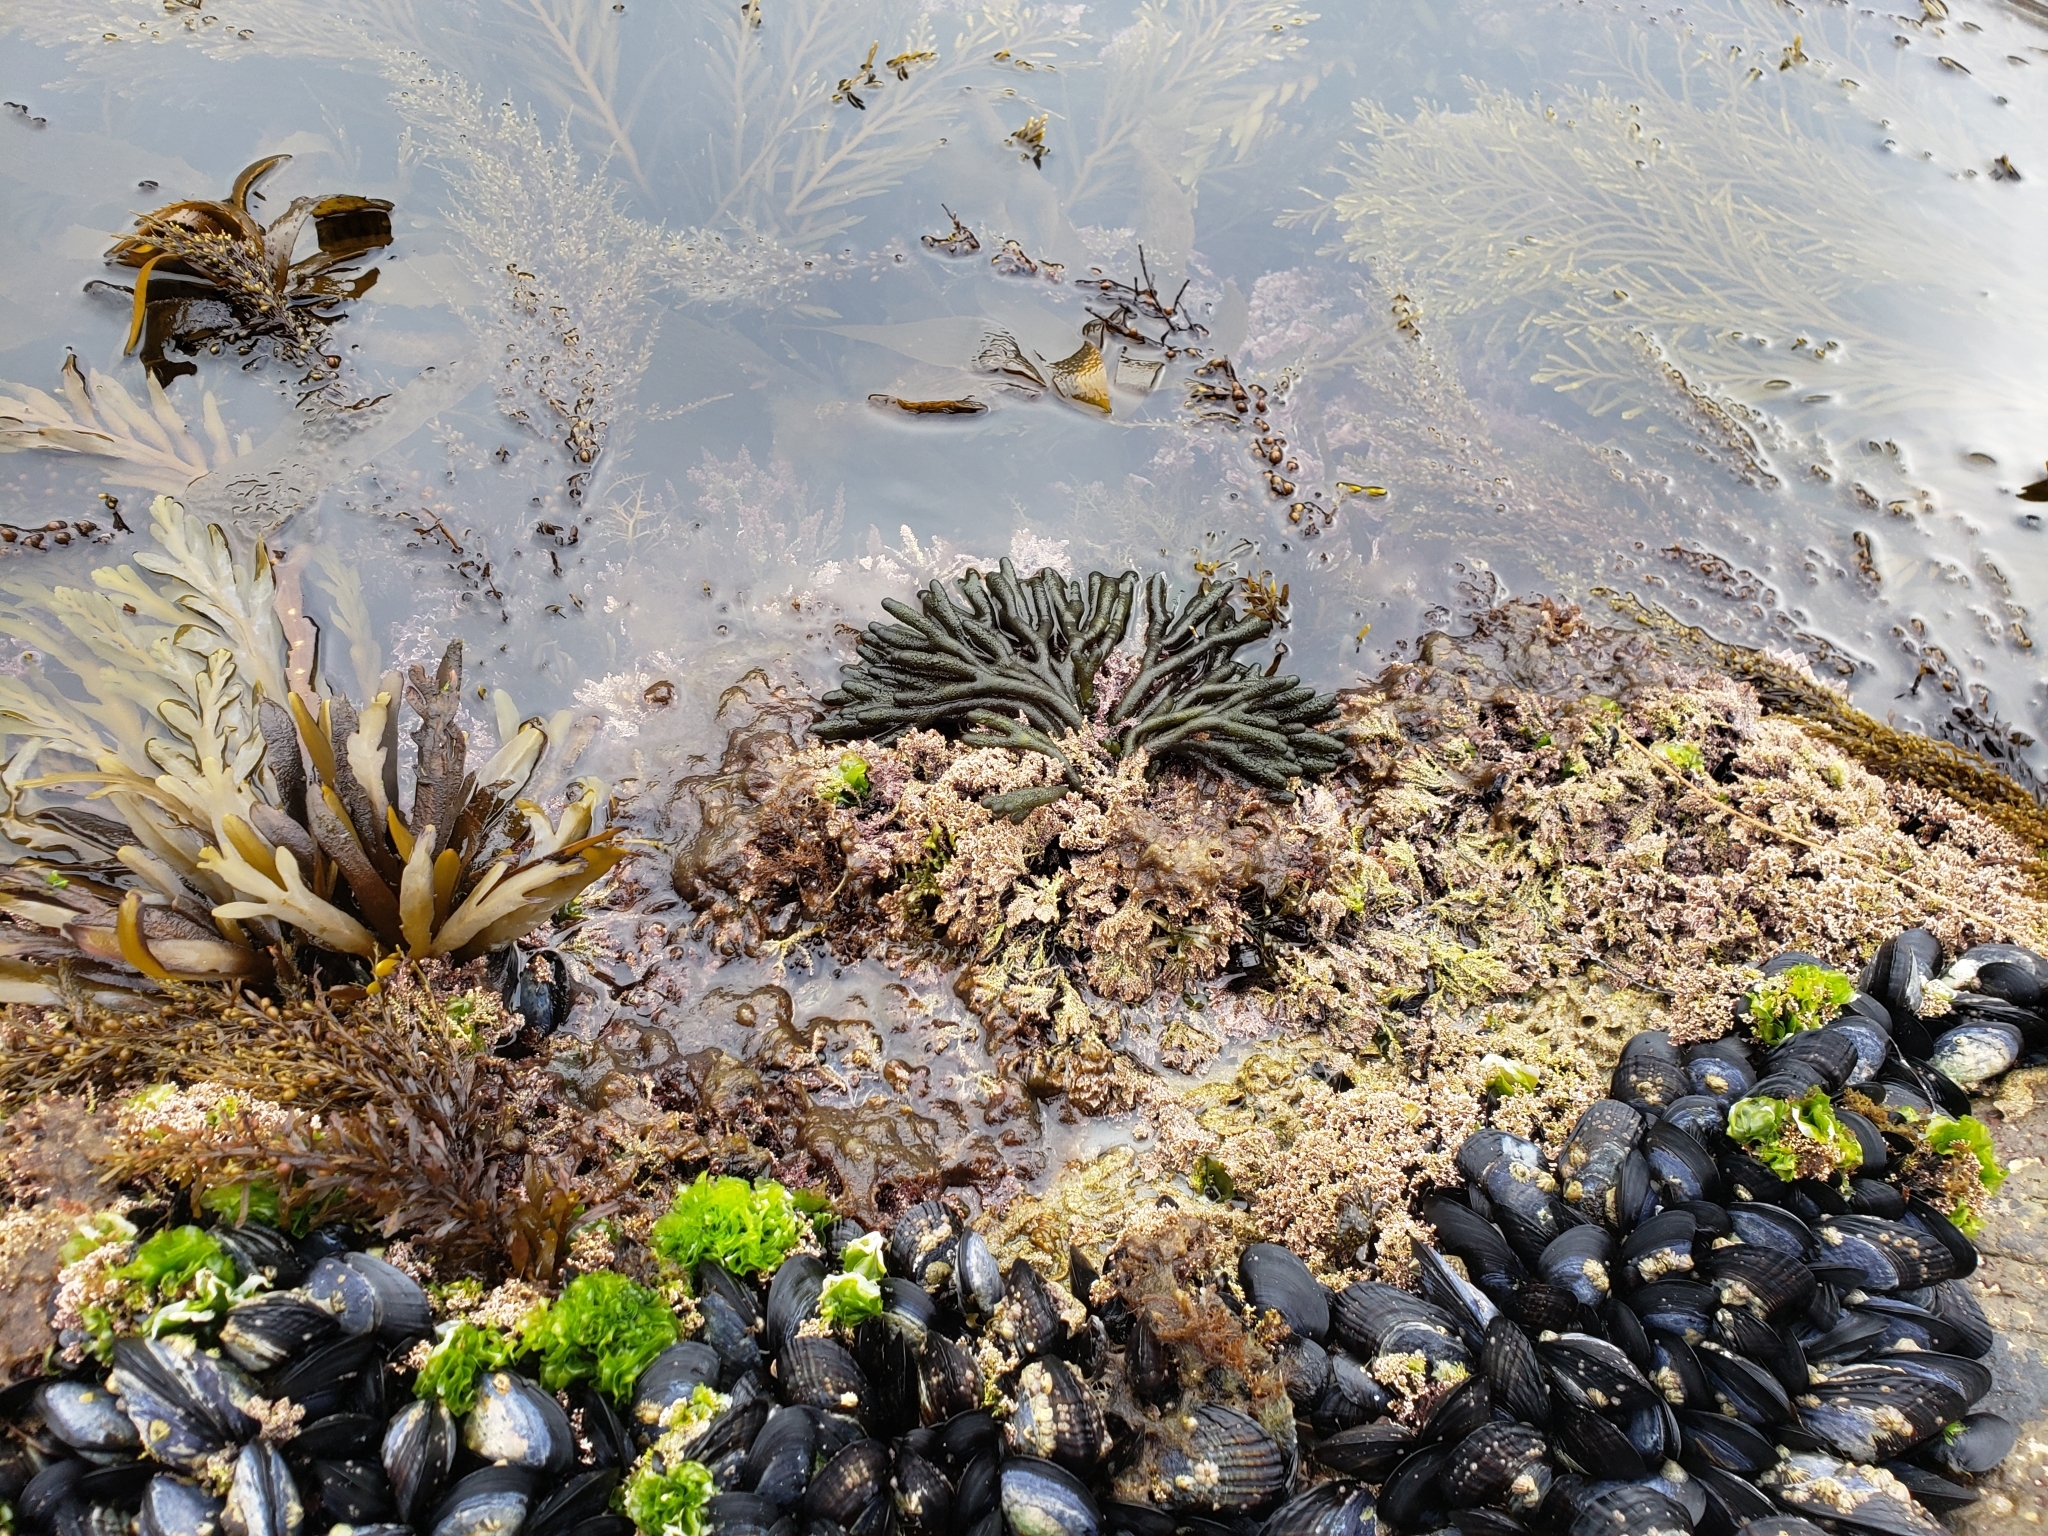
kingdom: Plantae
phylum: Chlorophyta
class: Ulvophyceae
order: Bryopsidales
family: Codiaceae
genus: Codium
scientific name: Codium fragile
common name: Dead man's fingers
